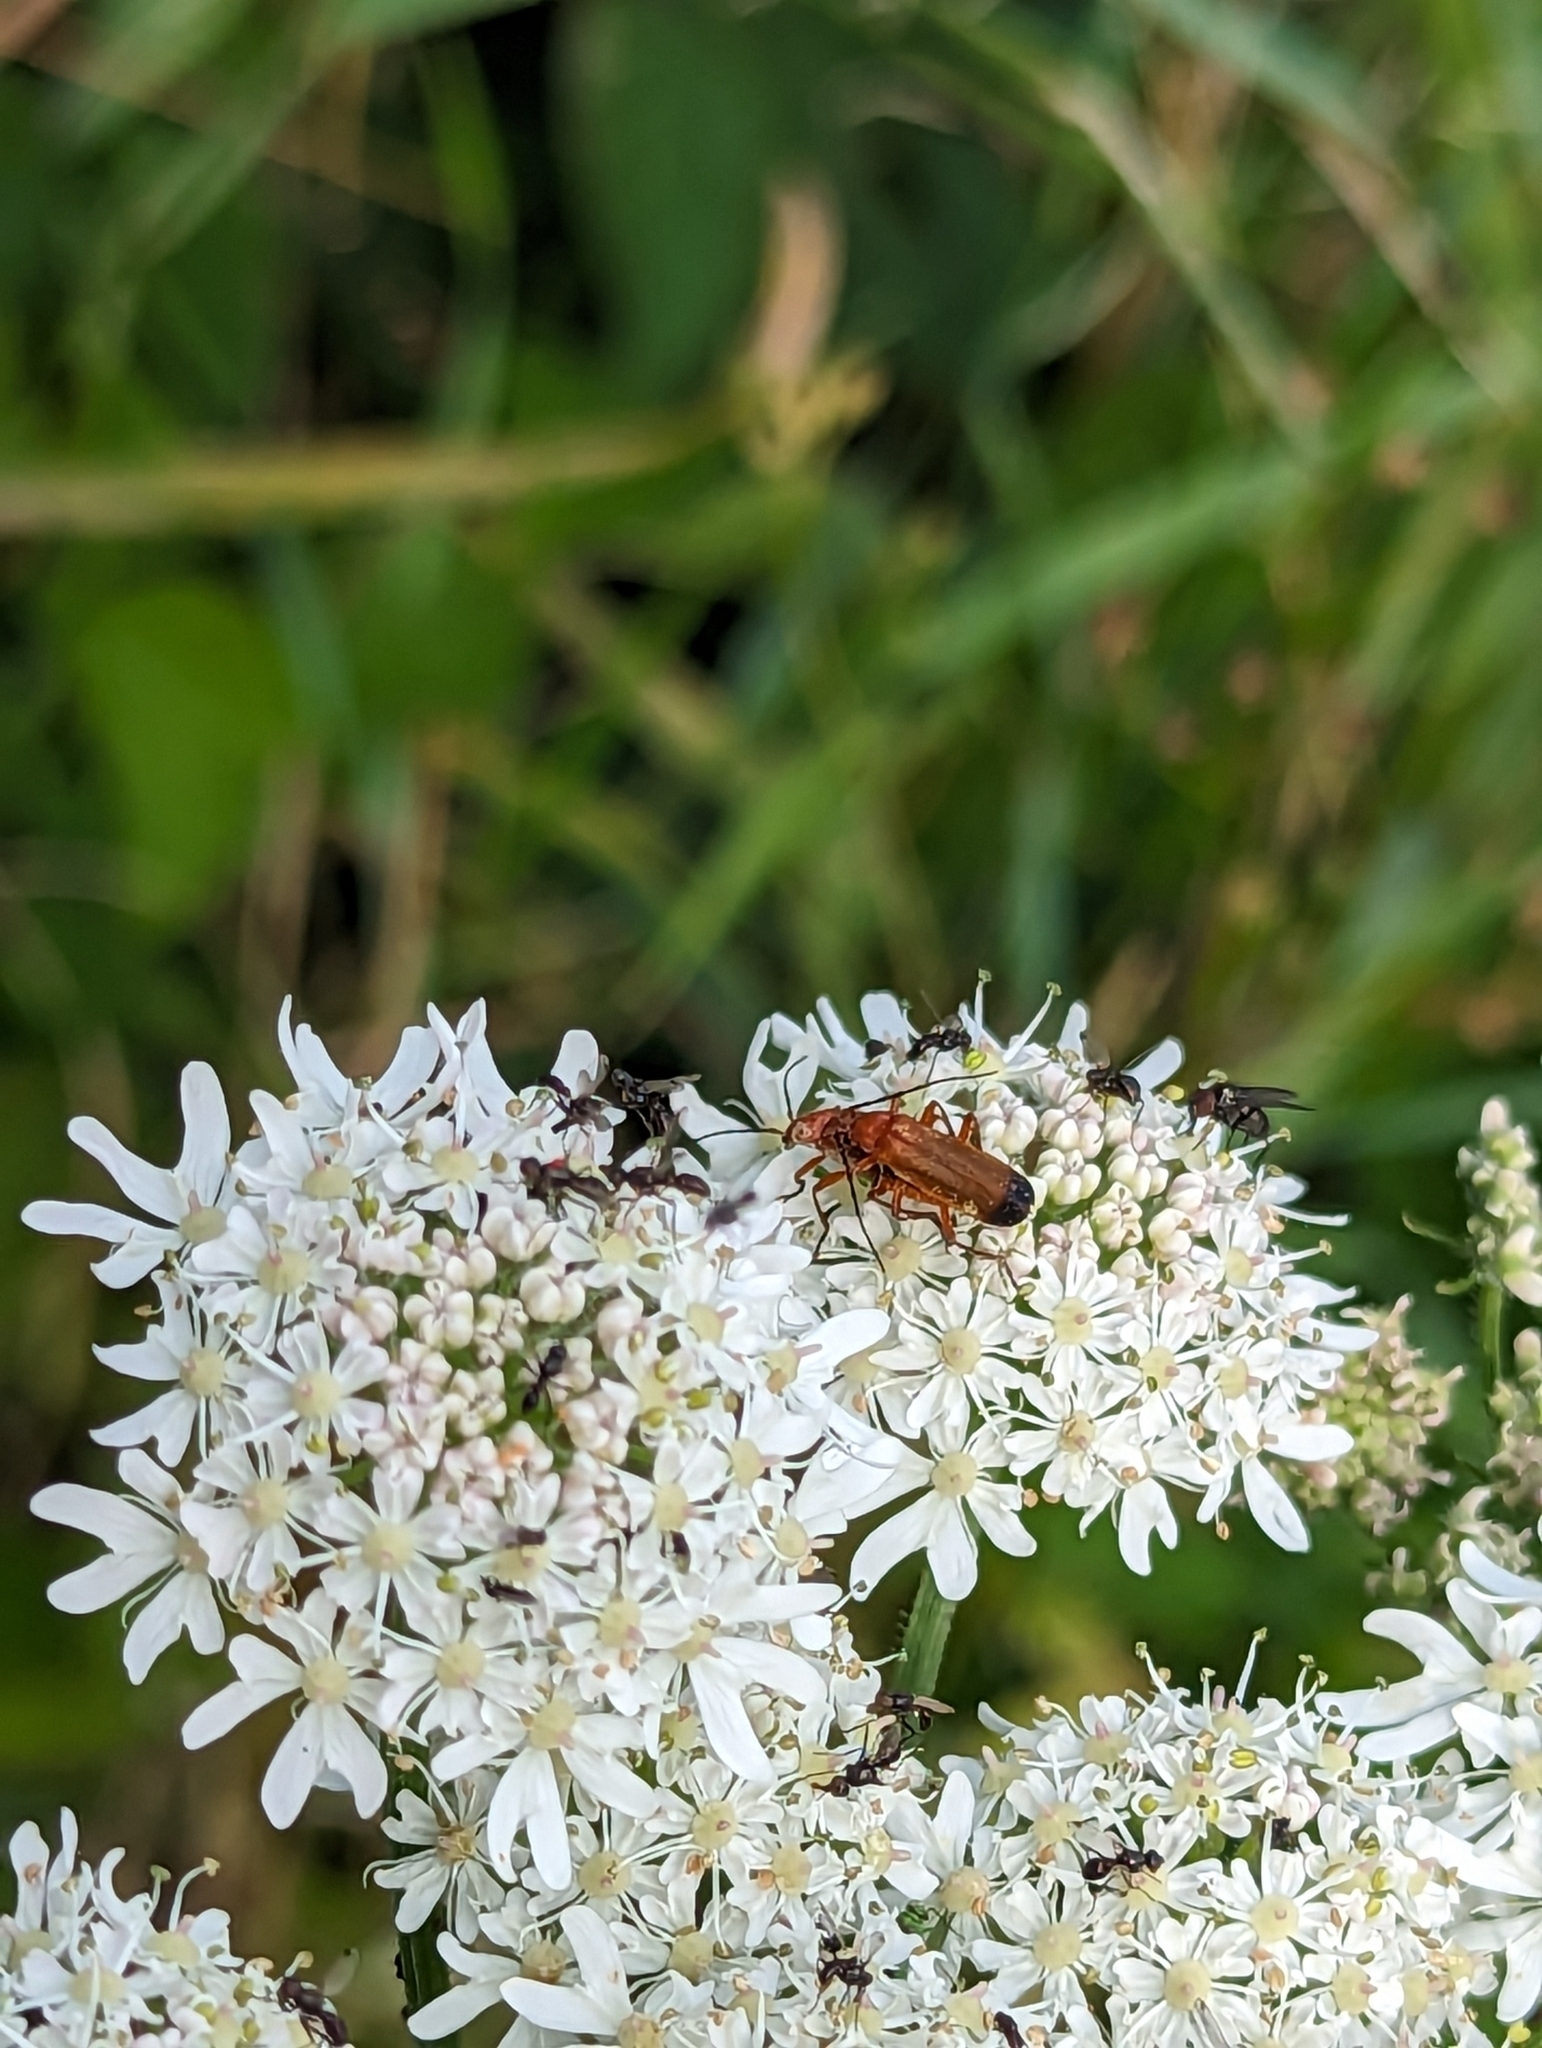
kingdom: Animalia
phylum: Arthropoda
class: Insecta
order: Diptera
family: Syrphidae
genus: Cheilosia
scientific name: Cheilosia morio
